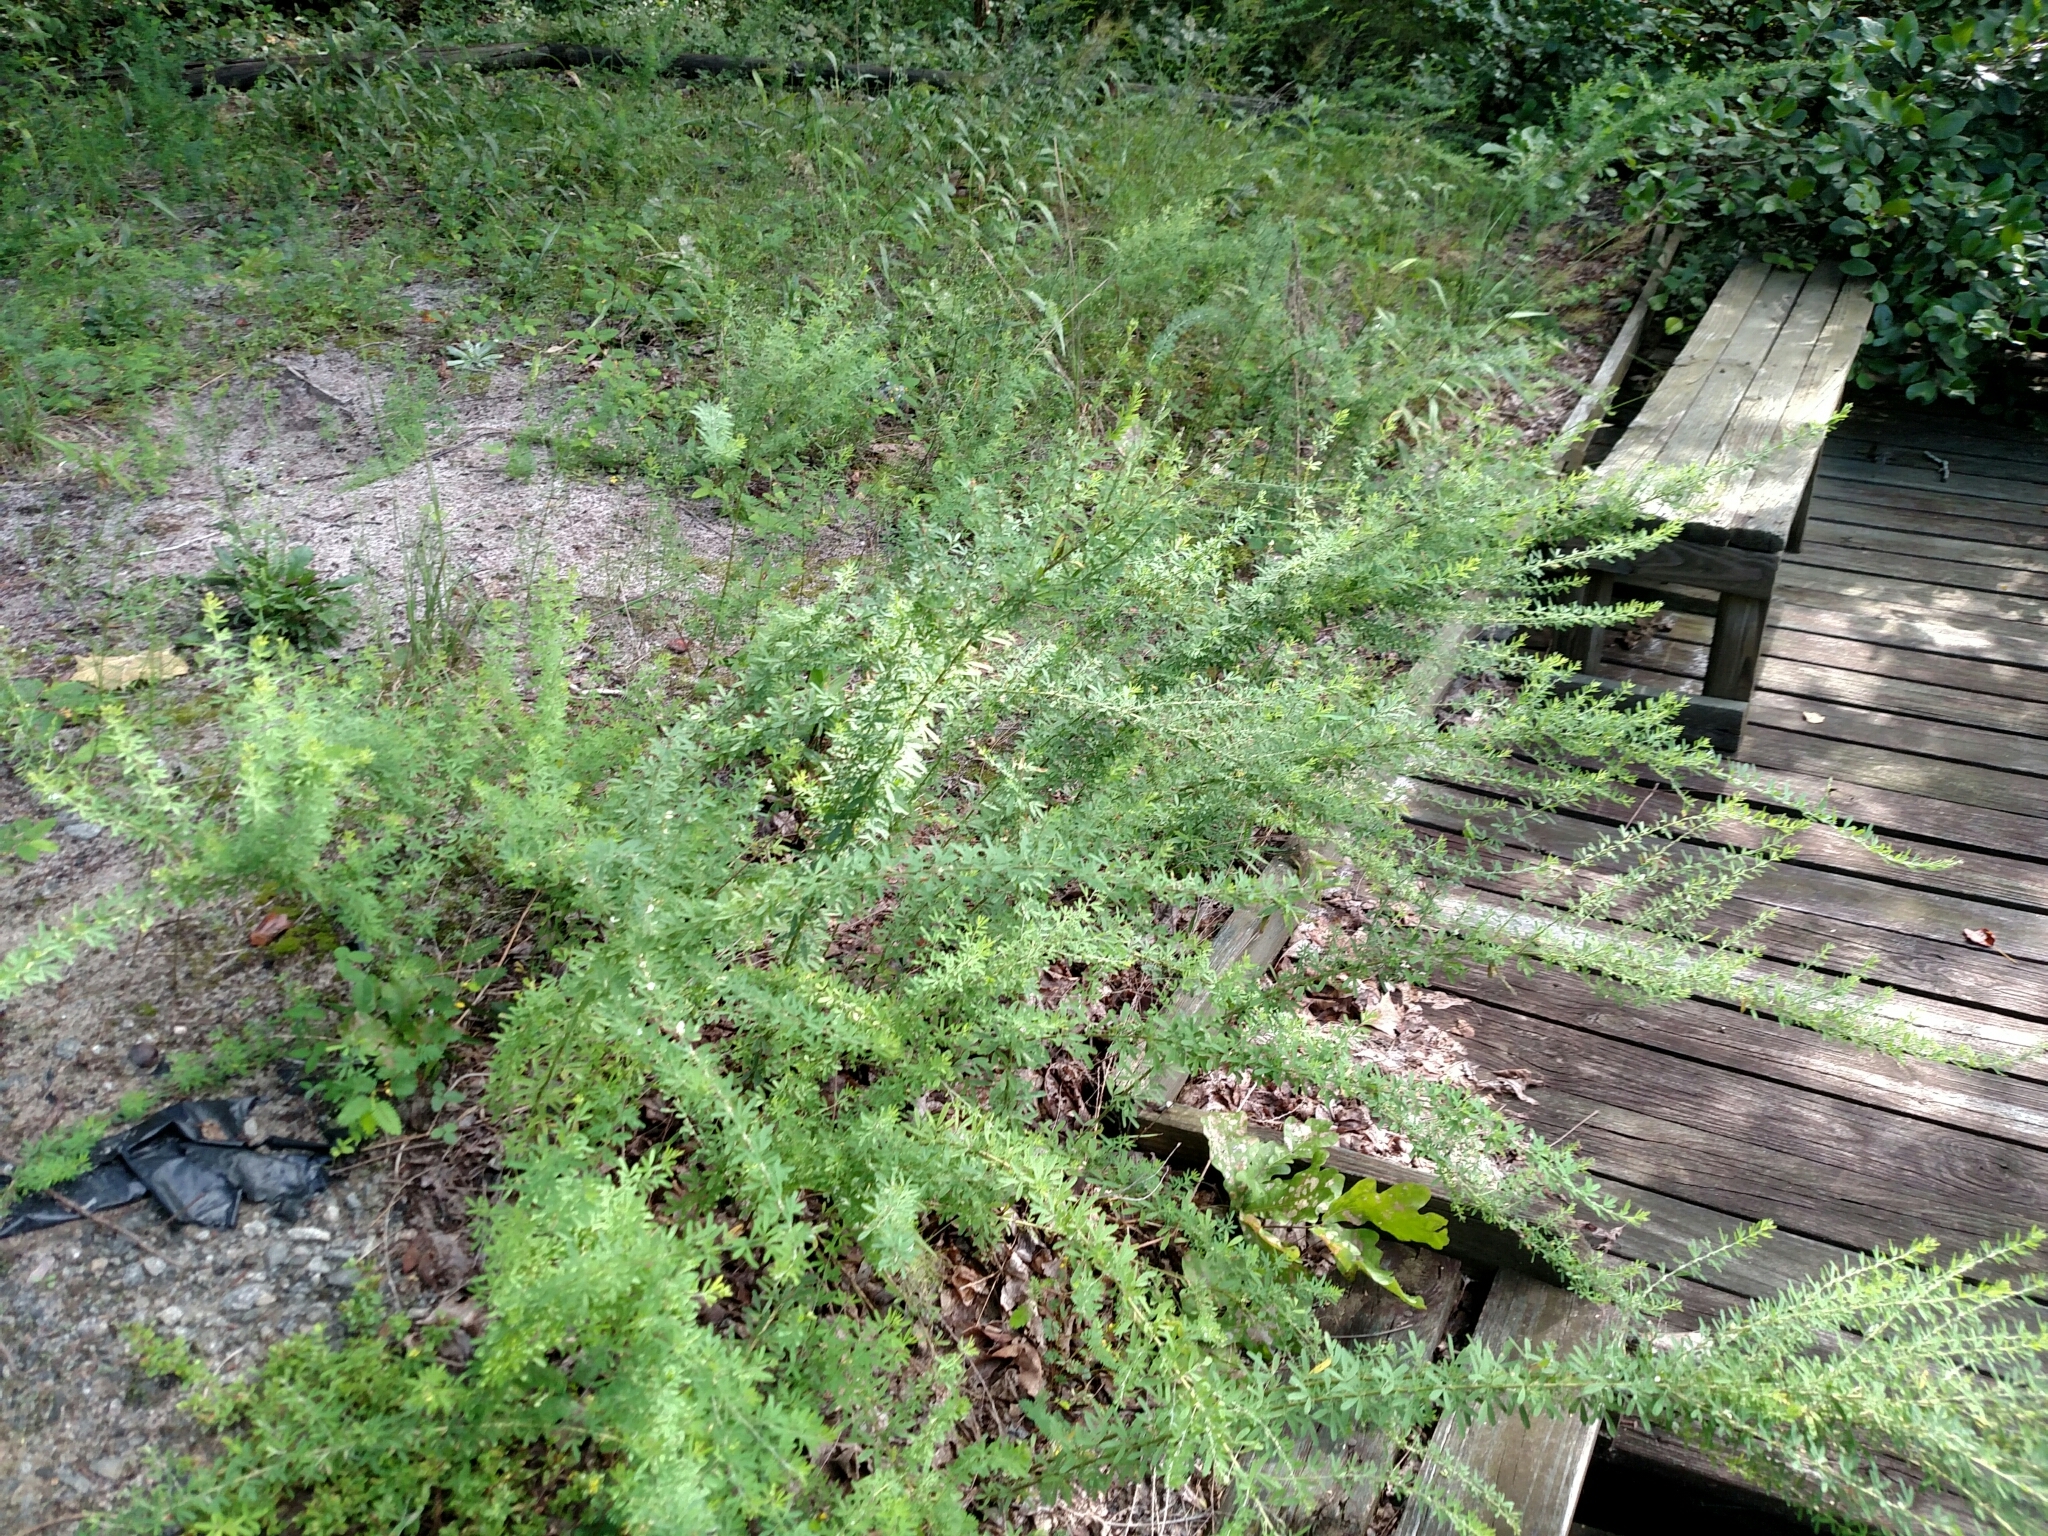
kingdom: Plantae
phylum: Tracheophyta
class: Magnoliopsida
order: Fabales
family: Fabaceae
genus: Lespedeza
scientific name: Lespedeza cuneata
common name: Chinese bush-clover
